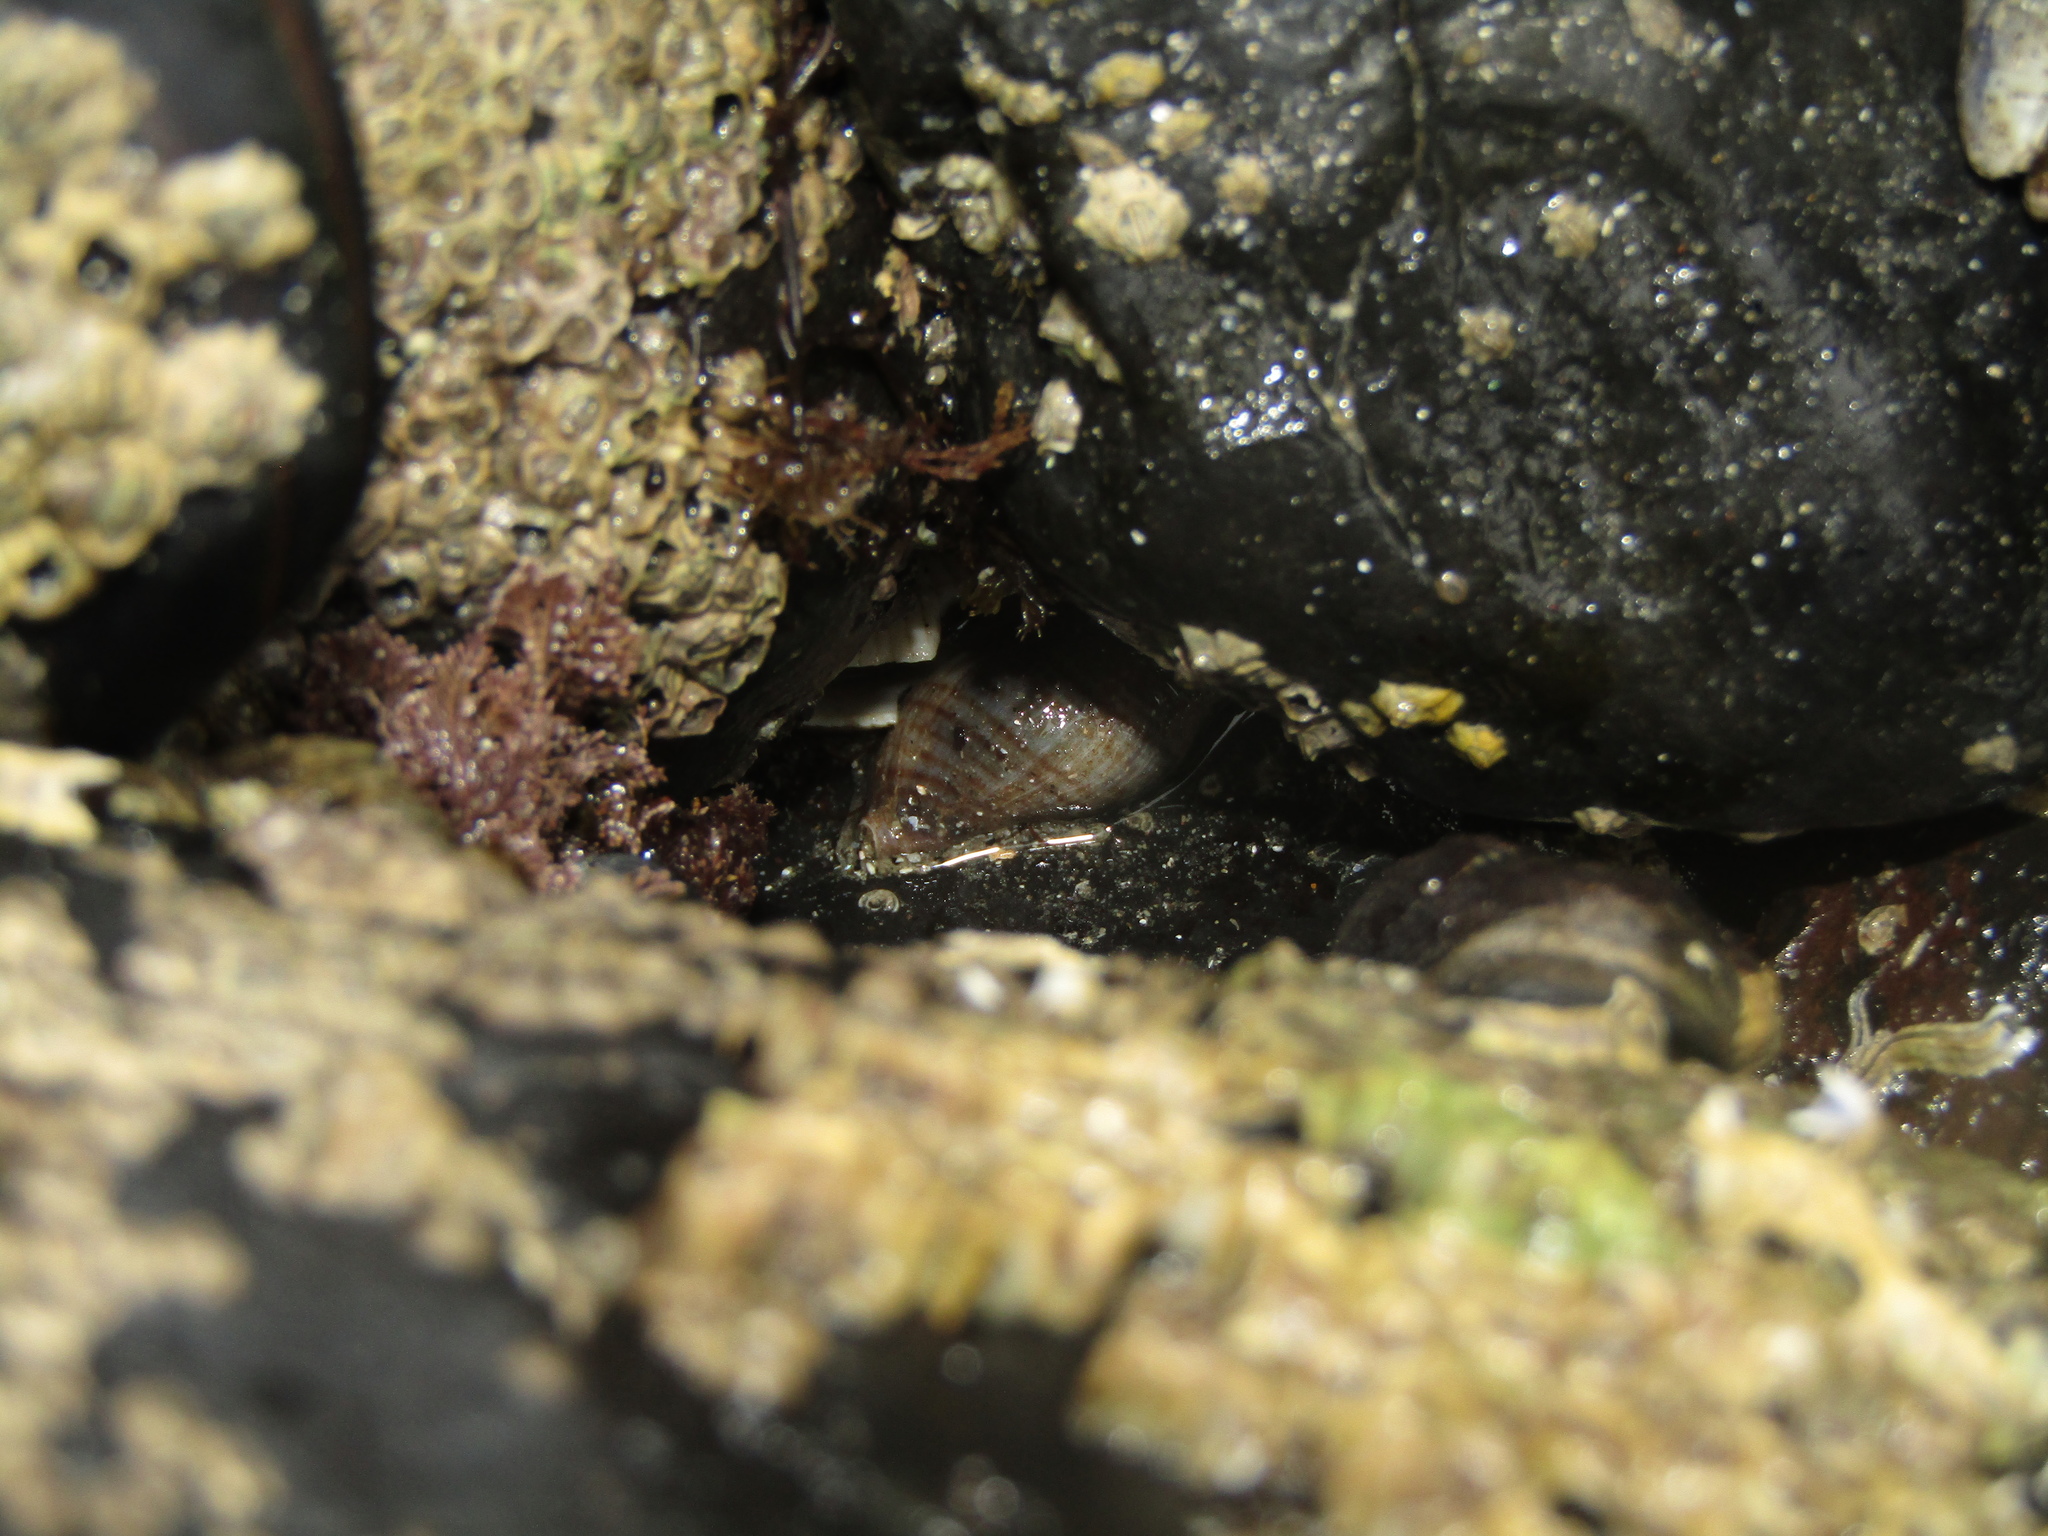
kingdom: Animalia
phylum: Mollusca
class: Gastropoda
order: Neogastropoda
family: Tudiclidae
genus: Buccinulum
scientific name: Buccinulum littorinoides
